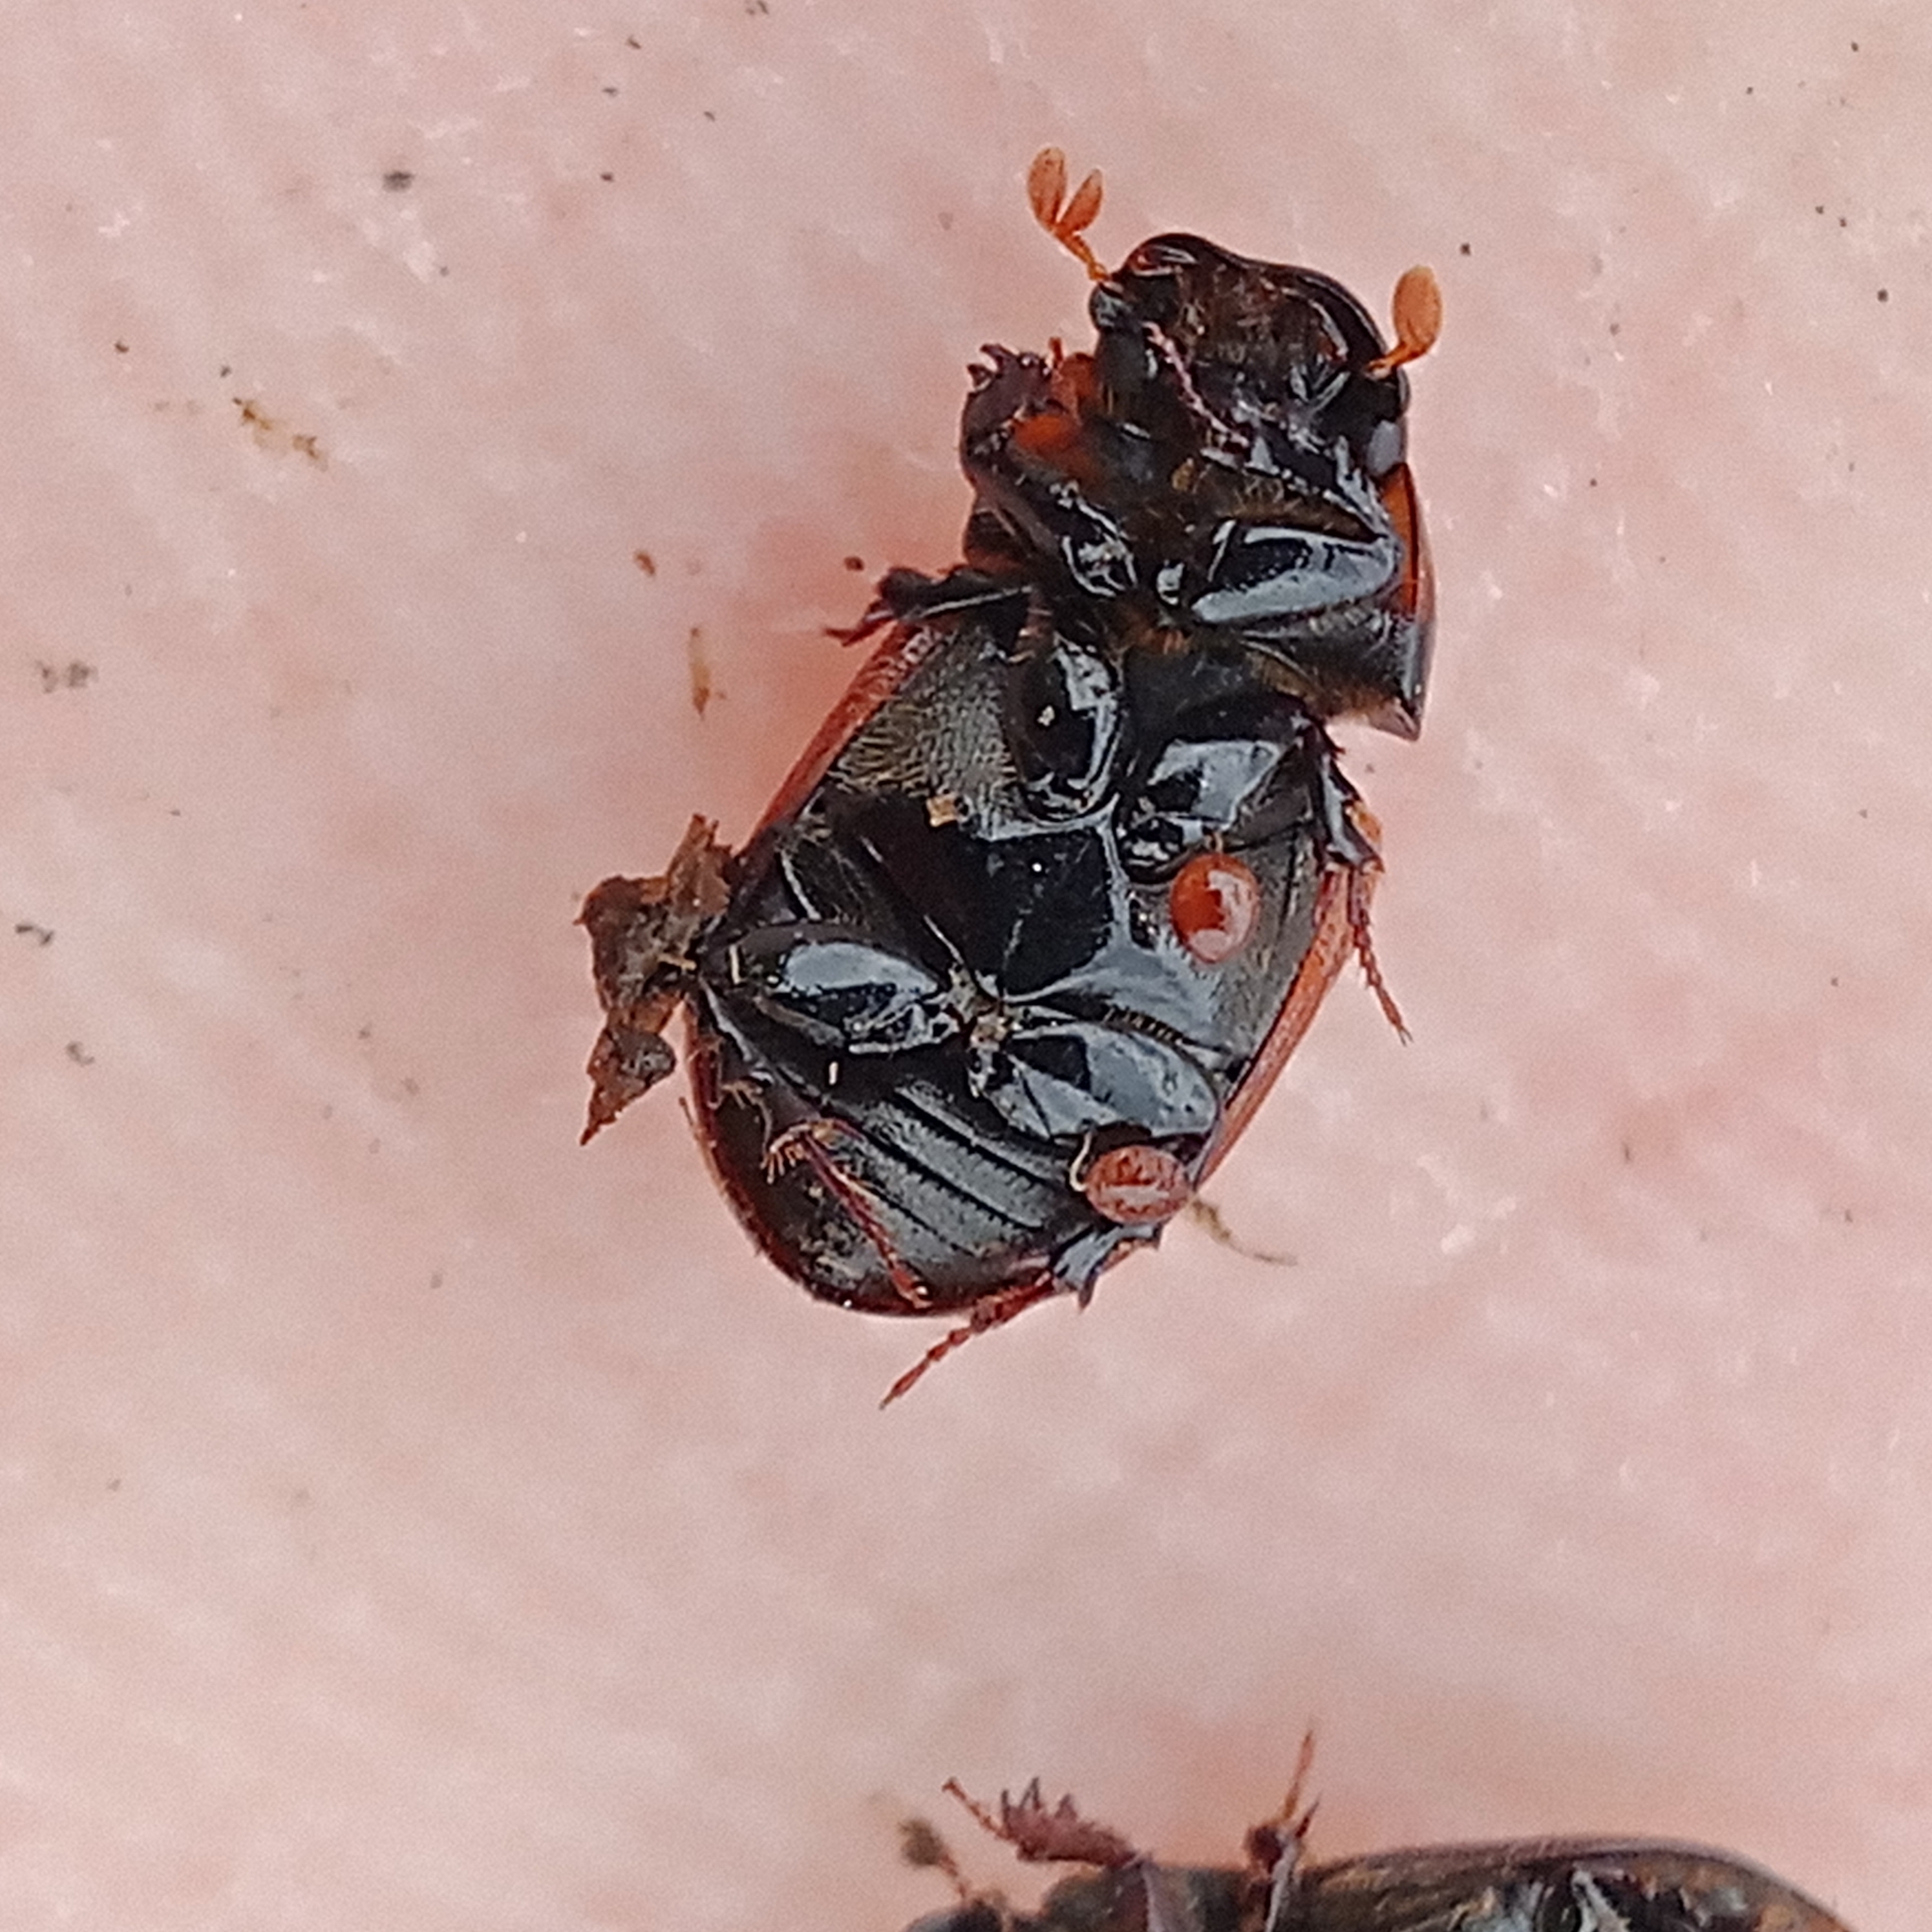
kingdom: Animalia
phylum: Arthropoda
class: Insecta
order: Coleoptera
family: Scarabaeidae
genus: Aphodius
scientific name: Aphodius pedellus
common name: Common dung beetle
